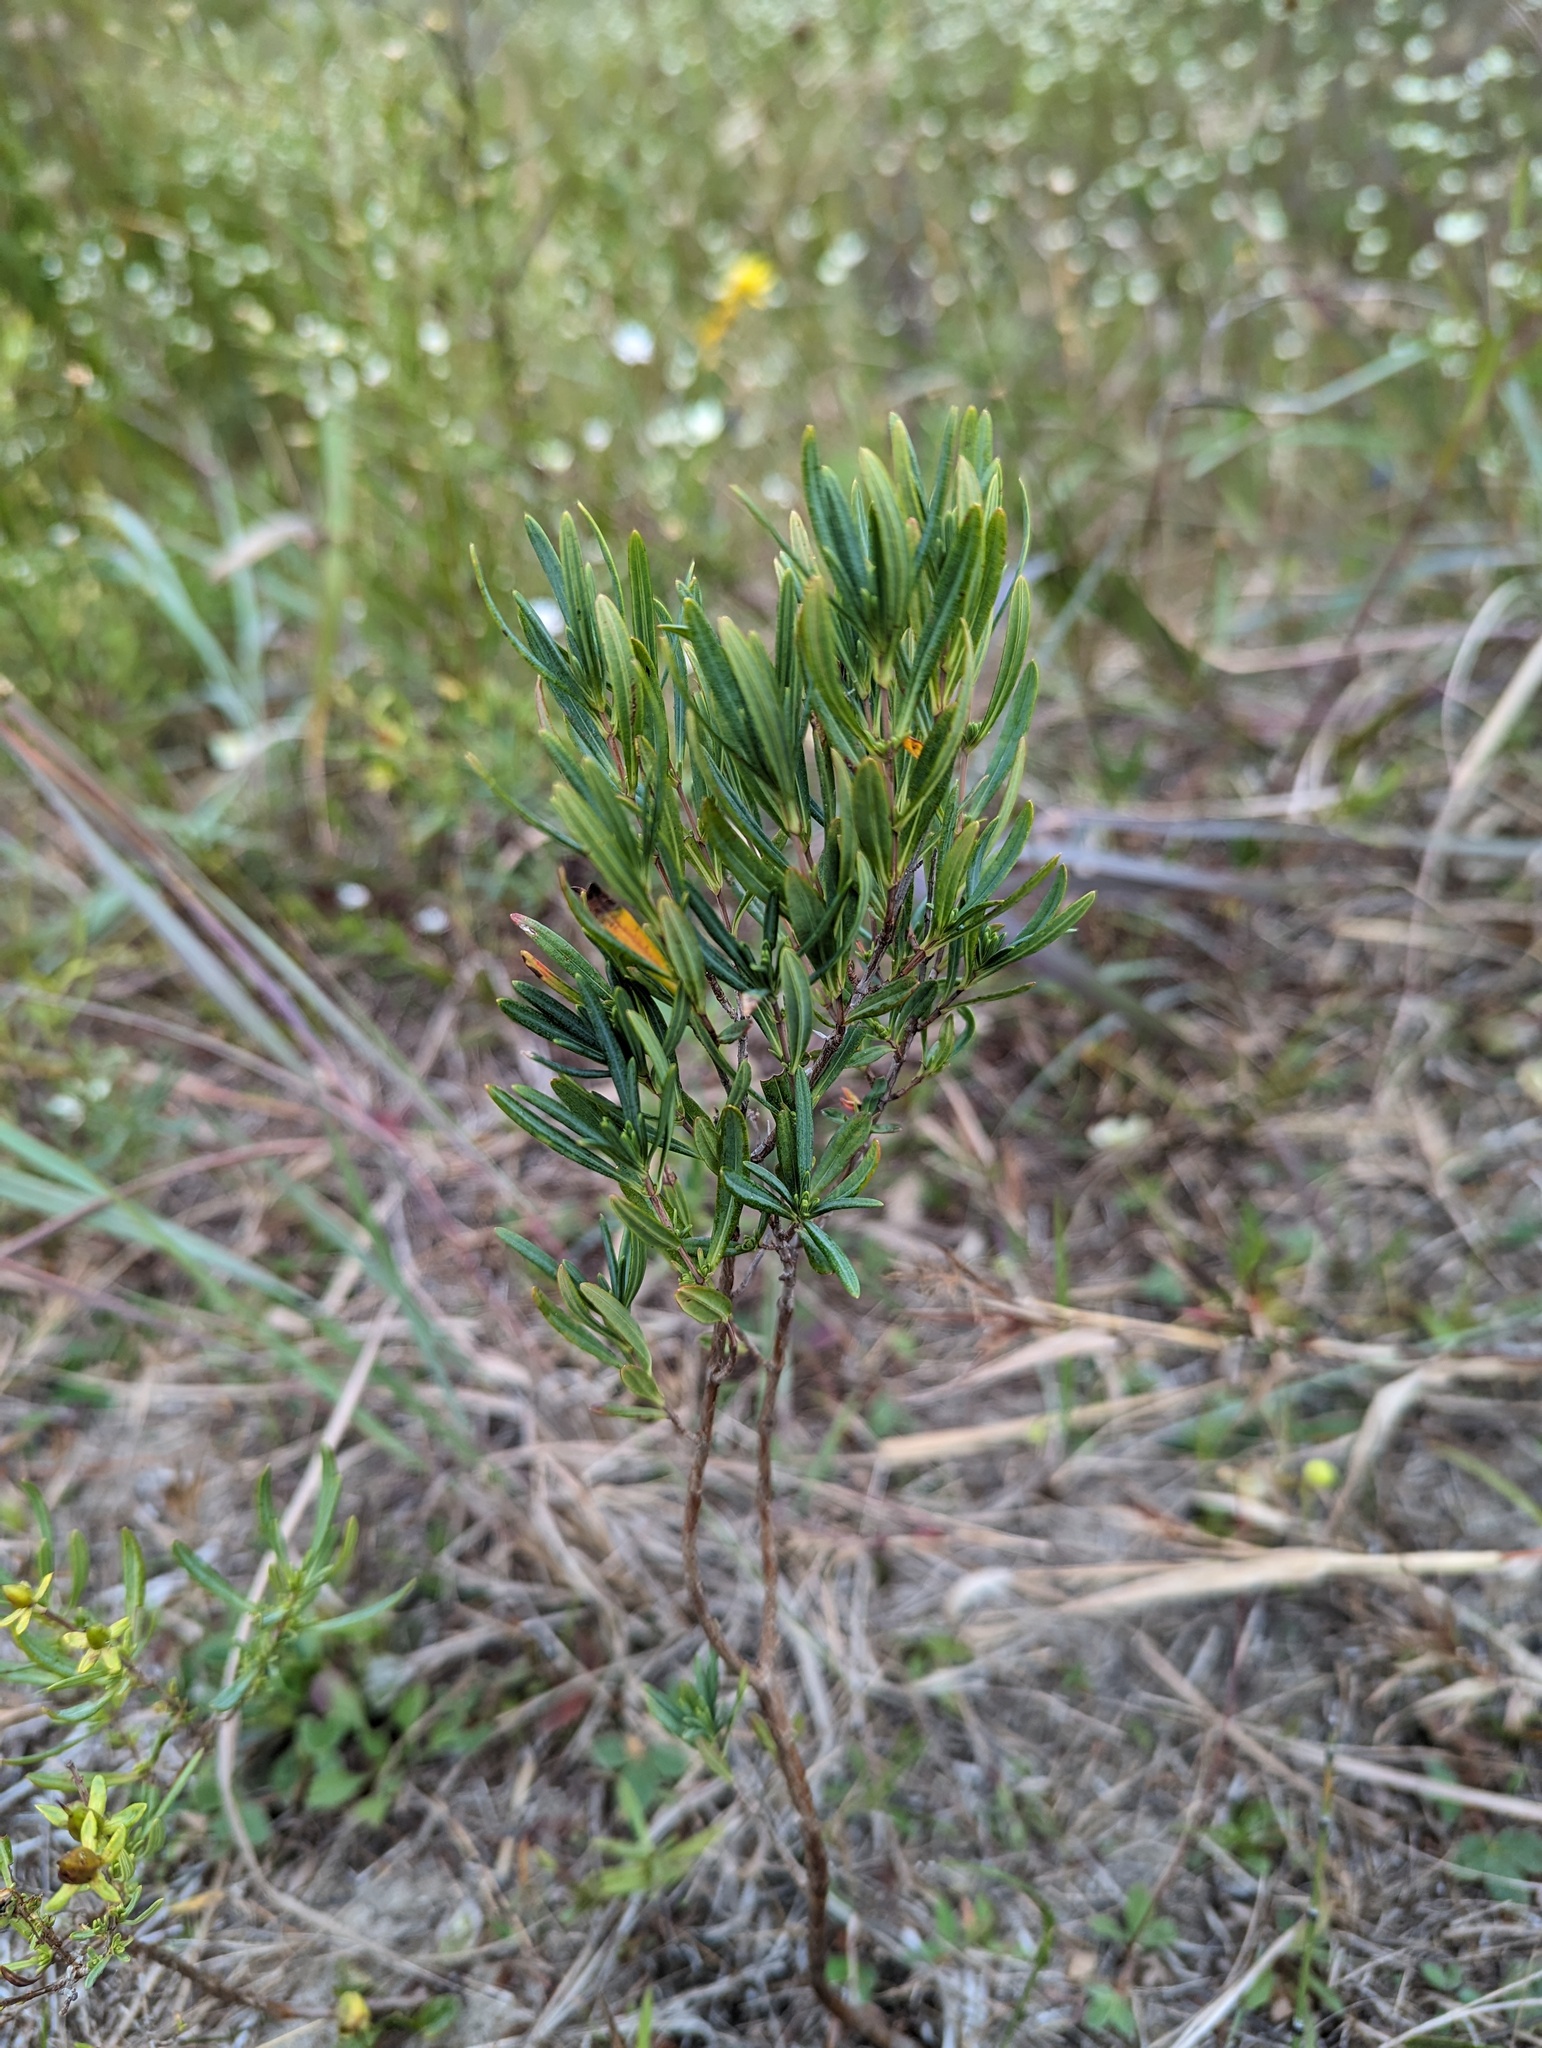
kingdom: Plantae
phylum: Tracheophyta
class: Magnoliopsida
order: Malpighiales
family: Hypericaceae
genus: Hypericum
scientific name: Hypericum kalmianum
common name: Kalm's st. john's-wort
